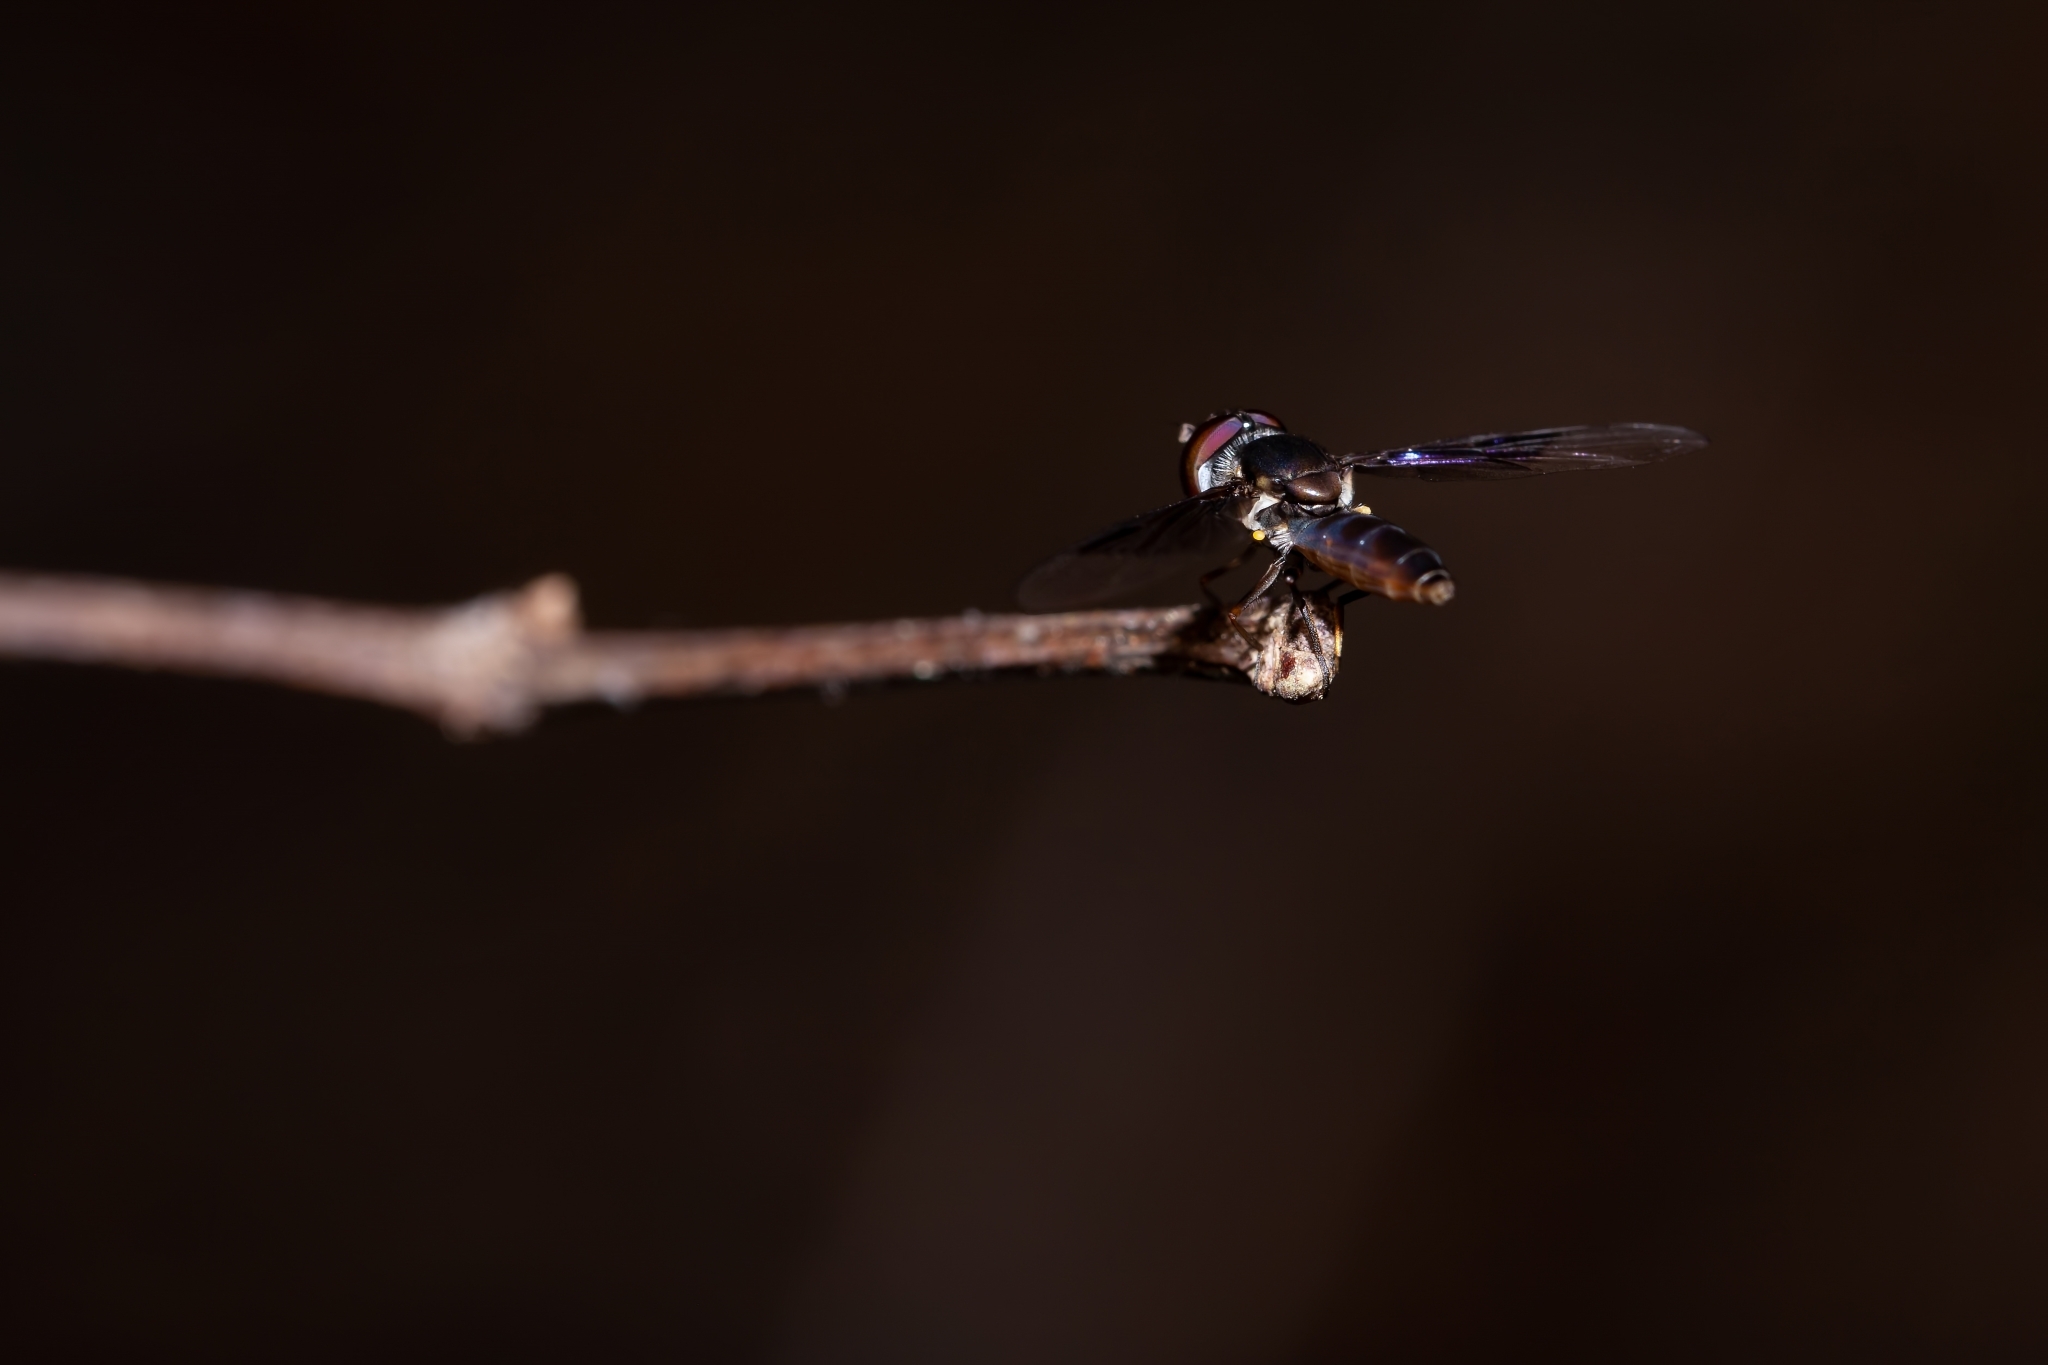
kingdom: Animalia
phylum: Arthropoda
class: Insecta
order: Diptera
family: Syrphidae
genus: Ocyptamus
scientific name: Ocyptamus dimidiatus
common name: Syrphid fly
